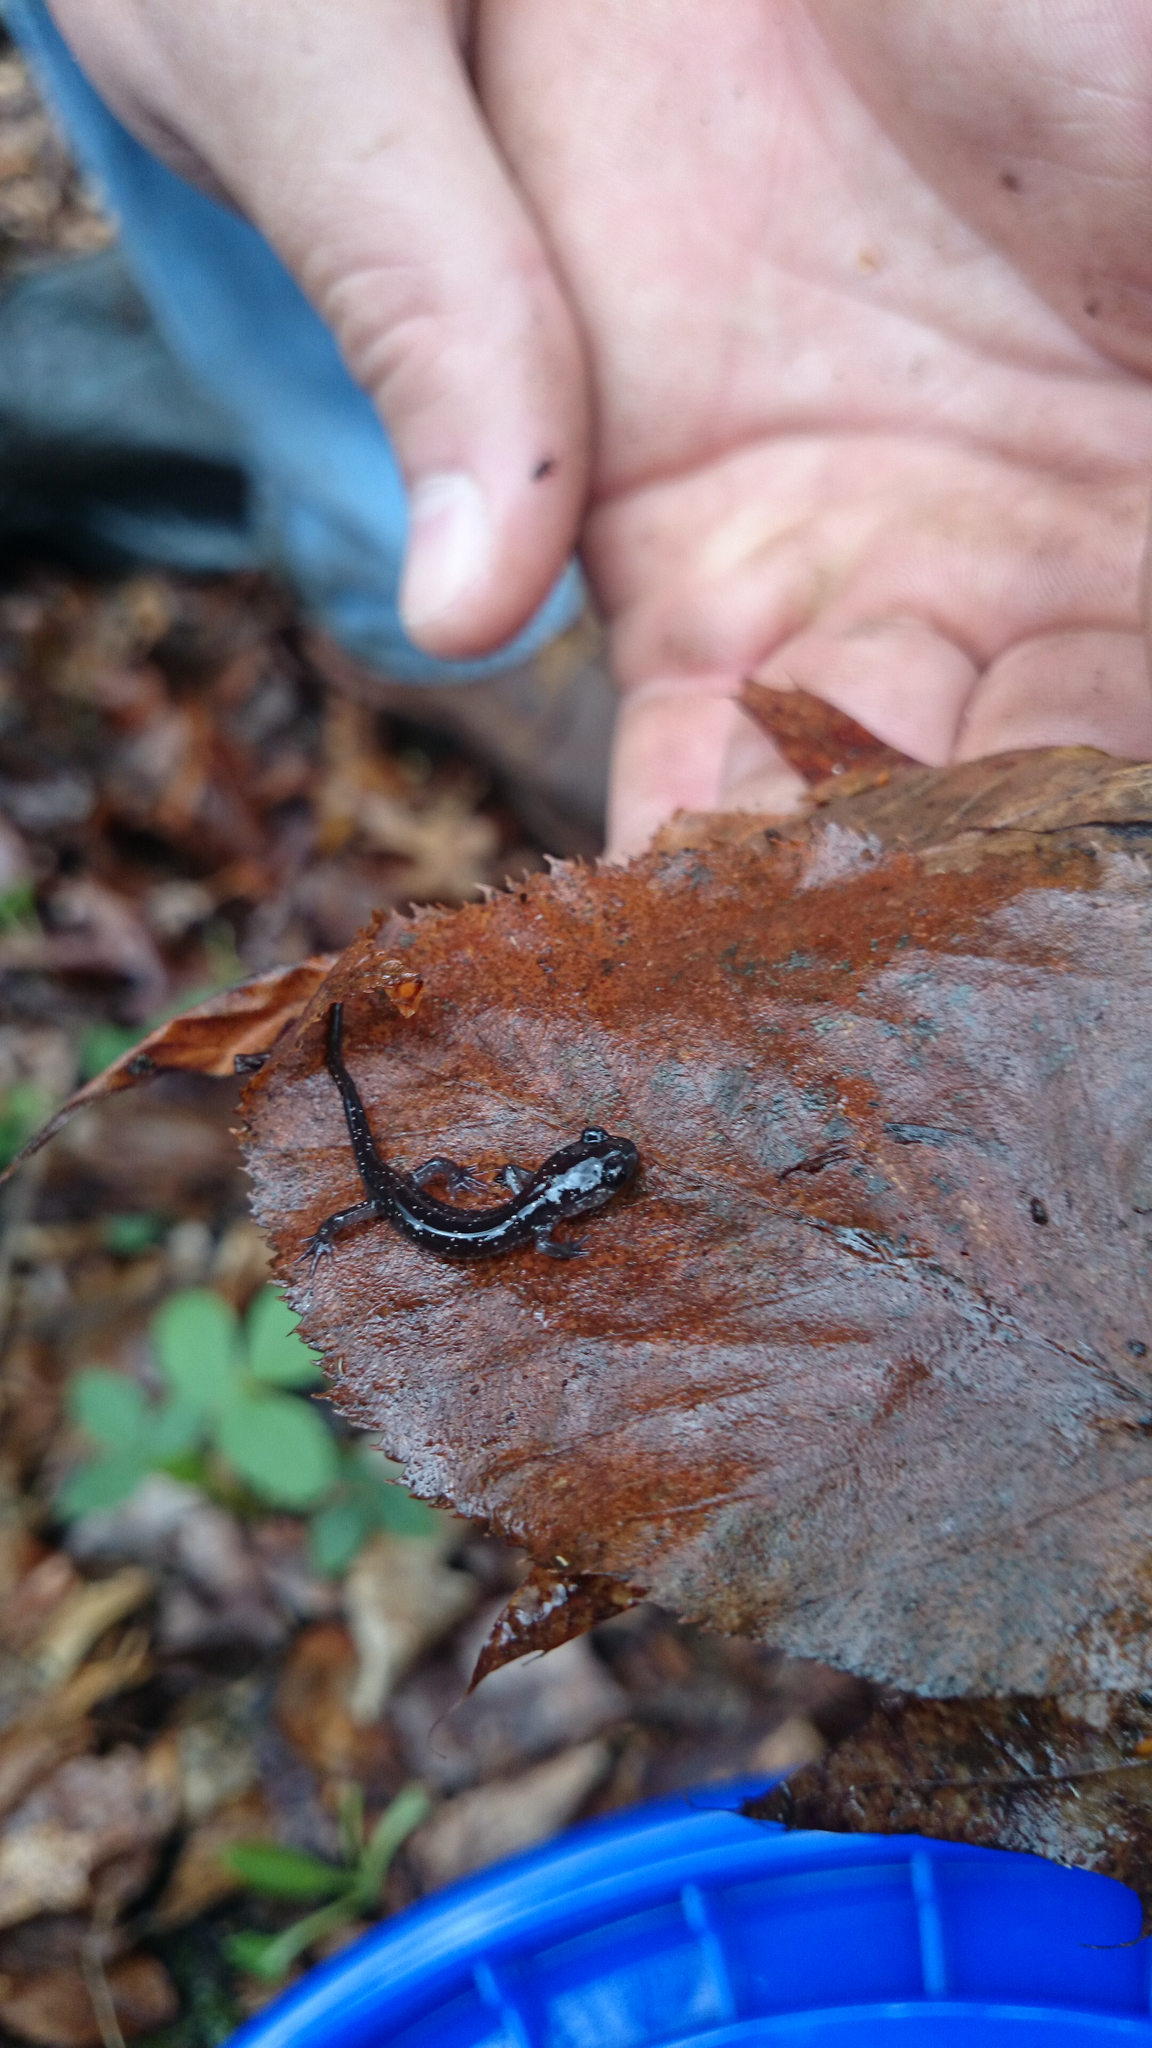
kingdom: Animalia
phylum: Chordata
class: Amphibia
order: Caudata
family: Plethodontidae
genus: Plethodon
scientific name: Plethodon teyahalee
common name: Southern appalachian salamander
